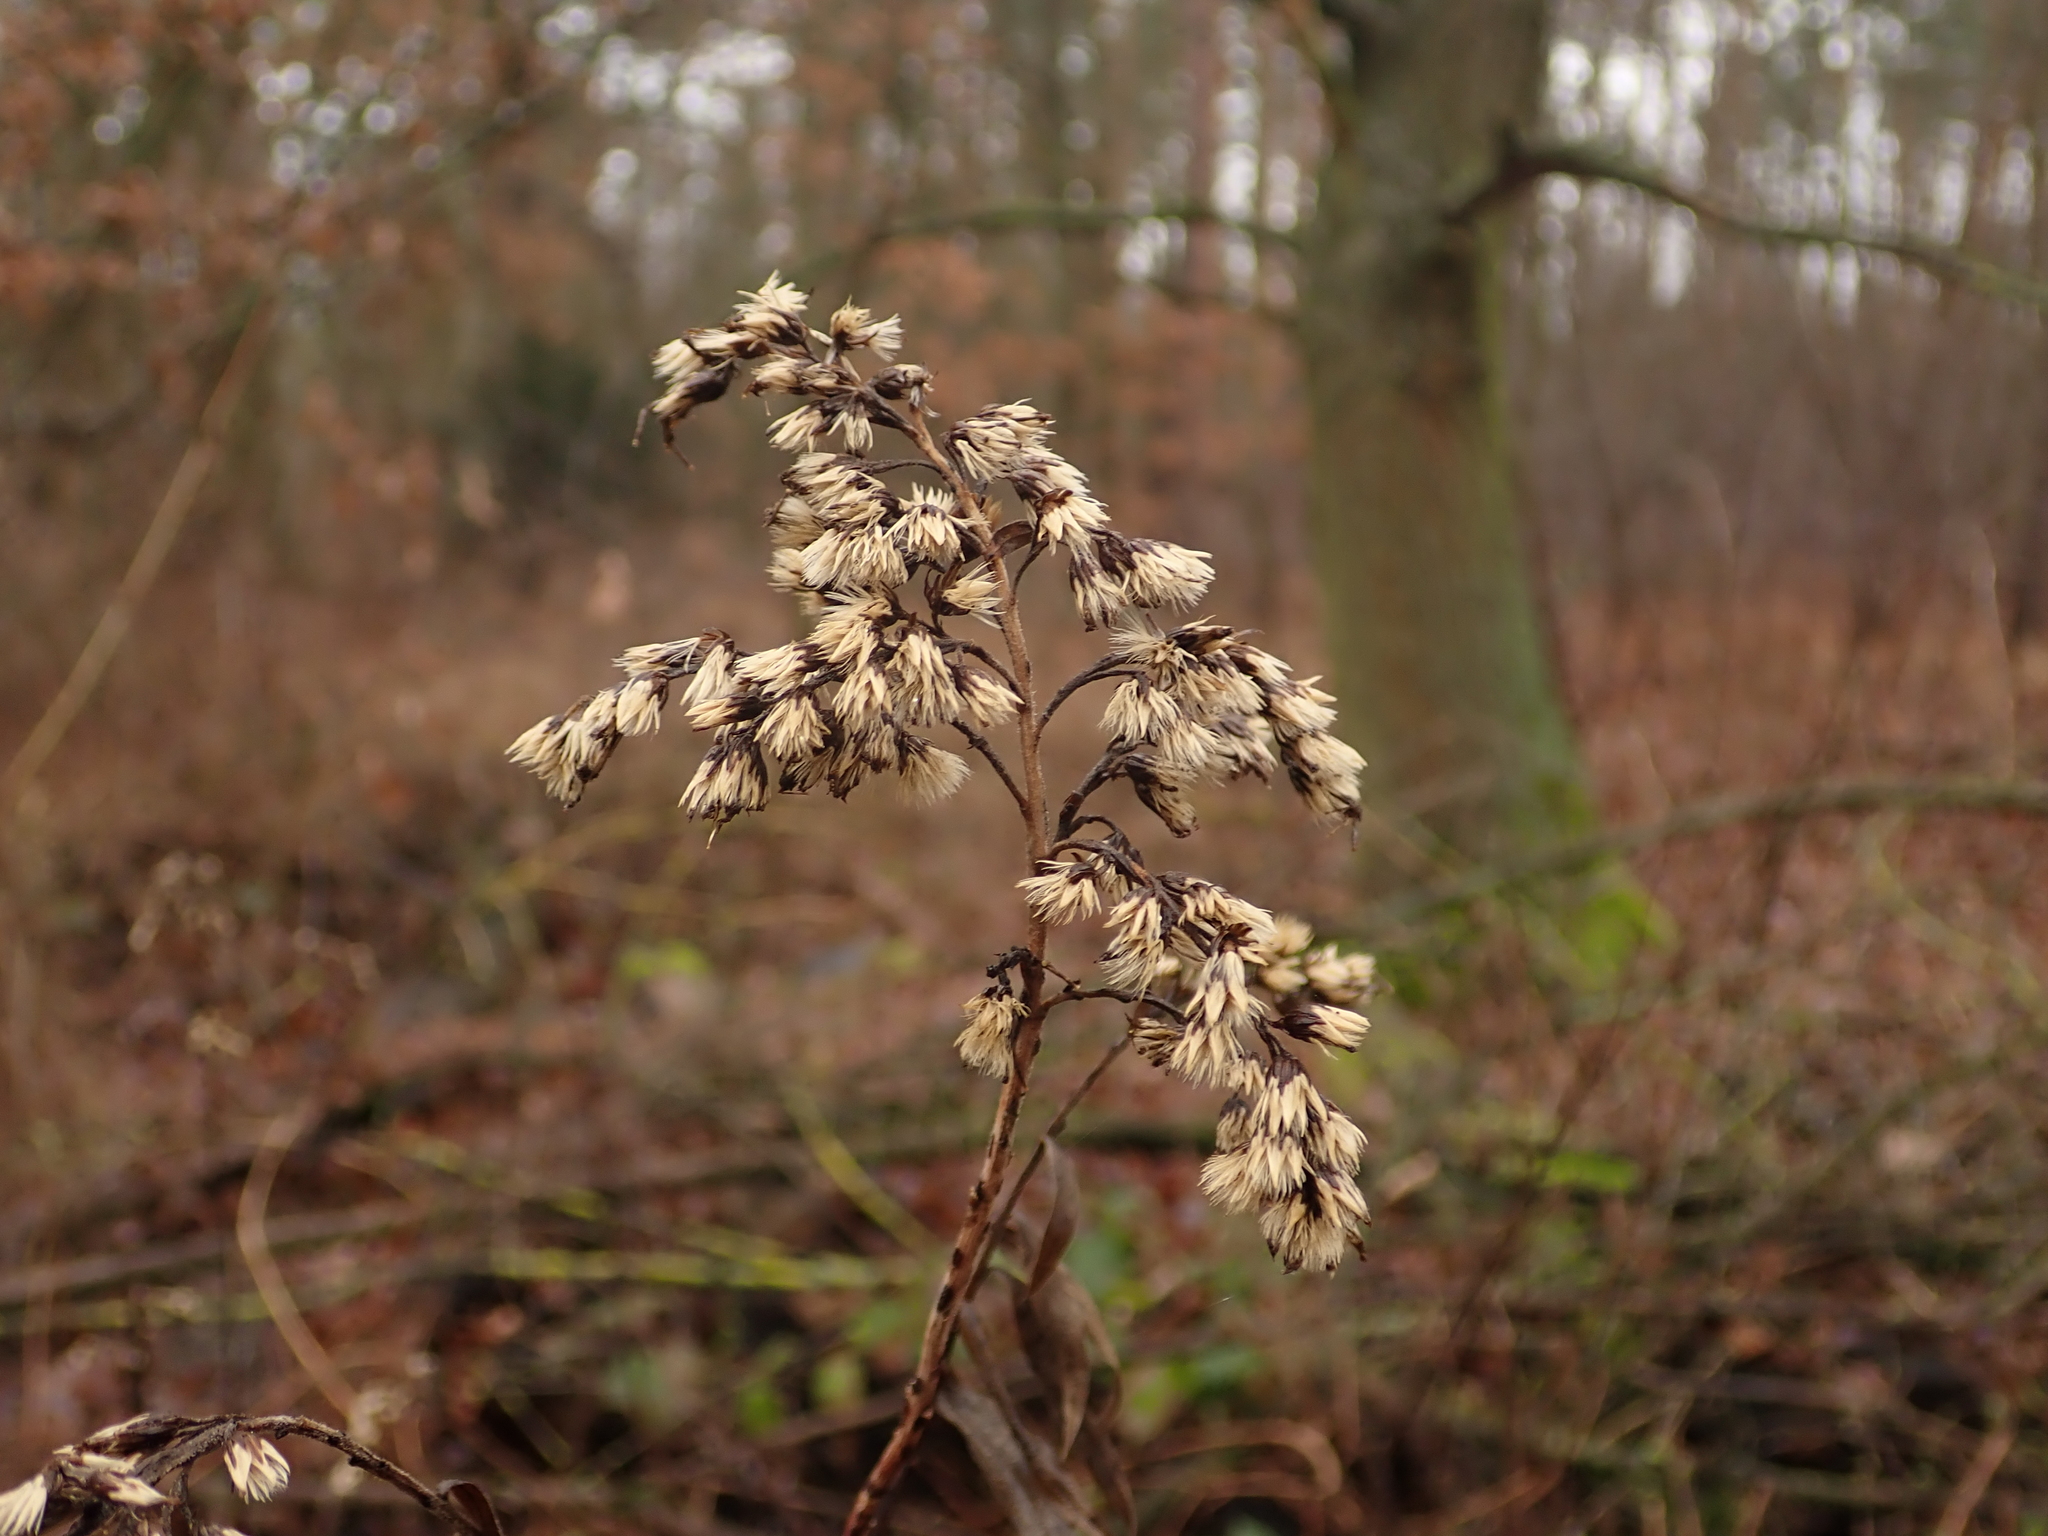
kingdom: Plantae
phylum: Tracheophyta
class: Magnoliopsida
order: Asterales
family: Asteraceae
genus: Solidago
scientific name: Solidago gigantea
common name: Giant goldenrod
